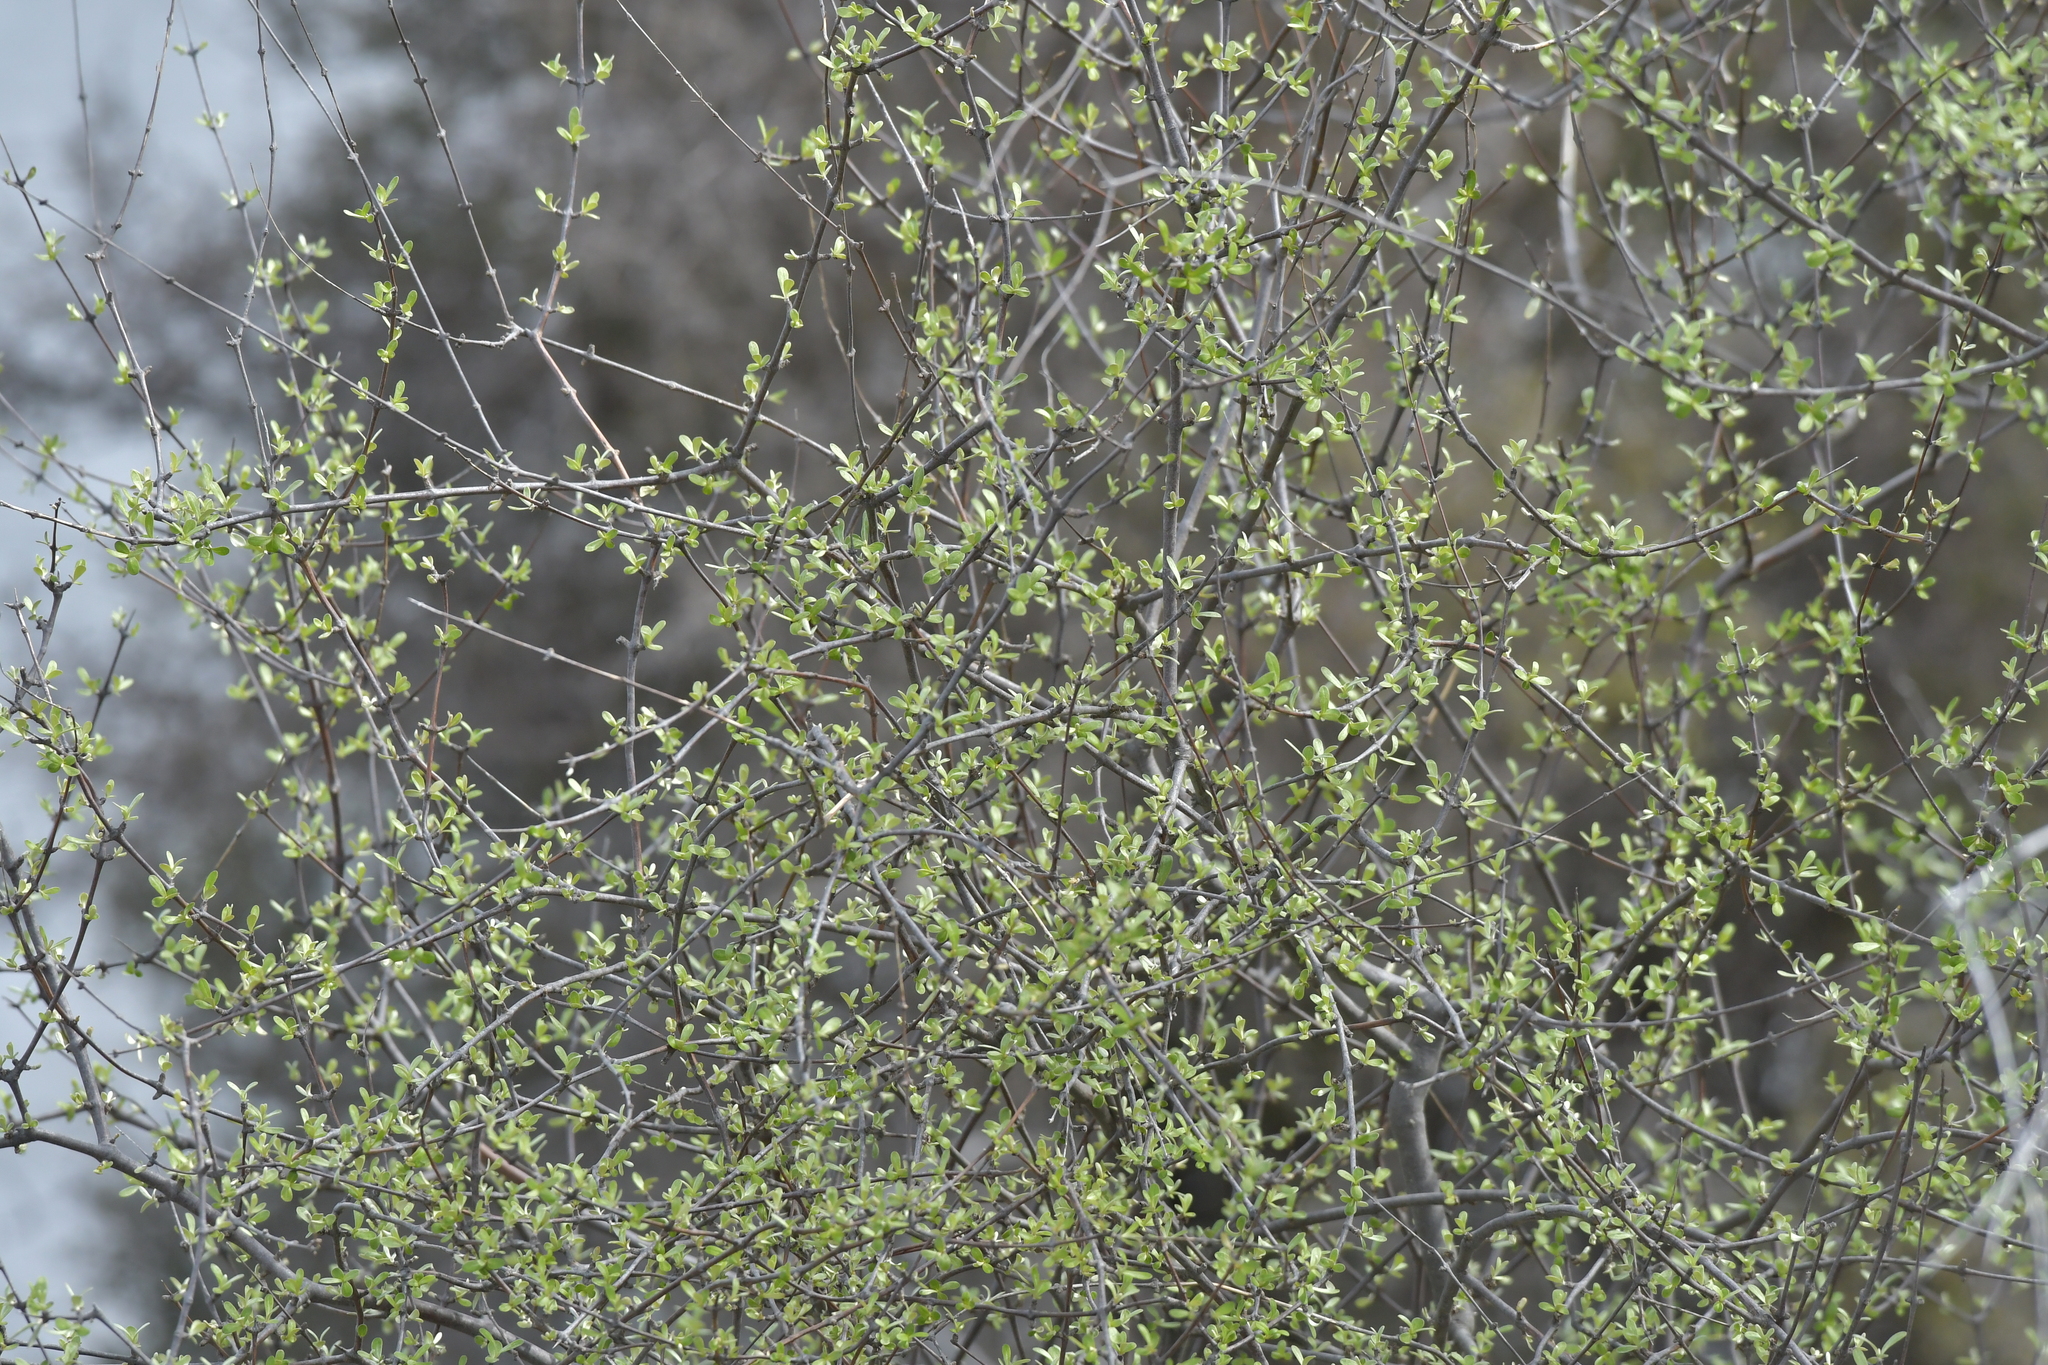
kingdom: Plantae
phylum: Tracheophyta
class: Magnoliopsida
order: Asterales
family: Asteraceae
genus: Olearia
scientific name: Olearia odorata
